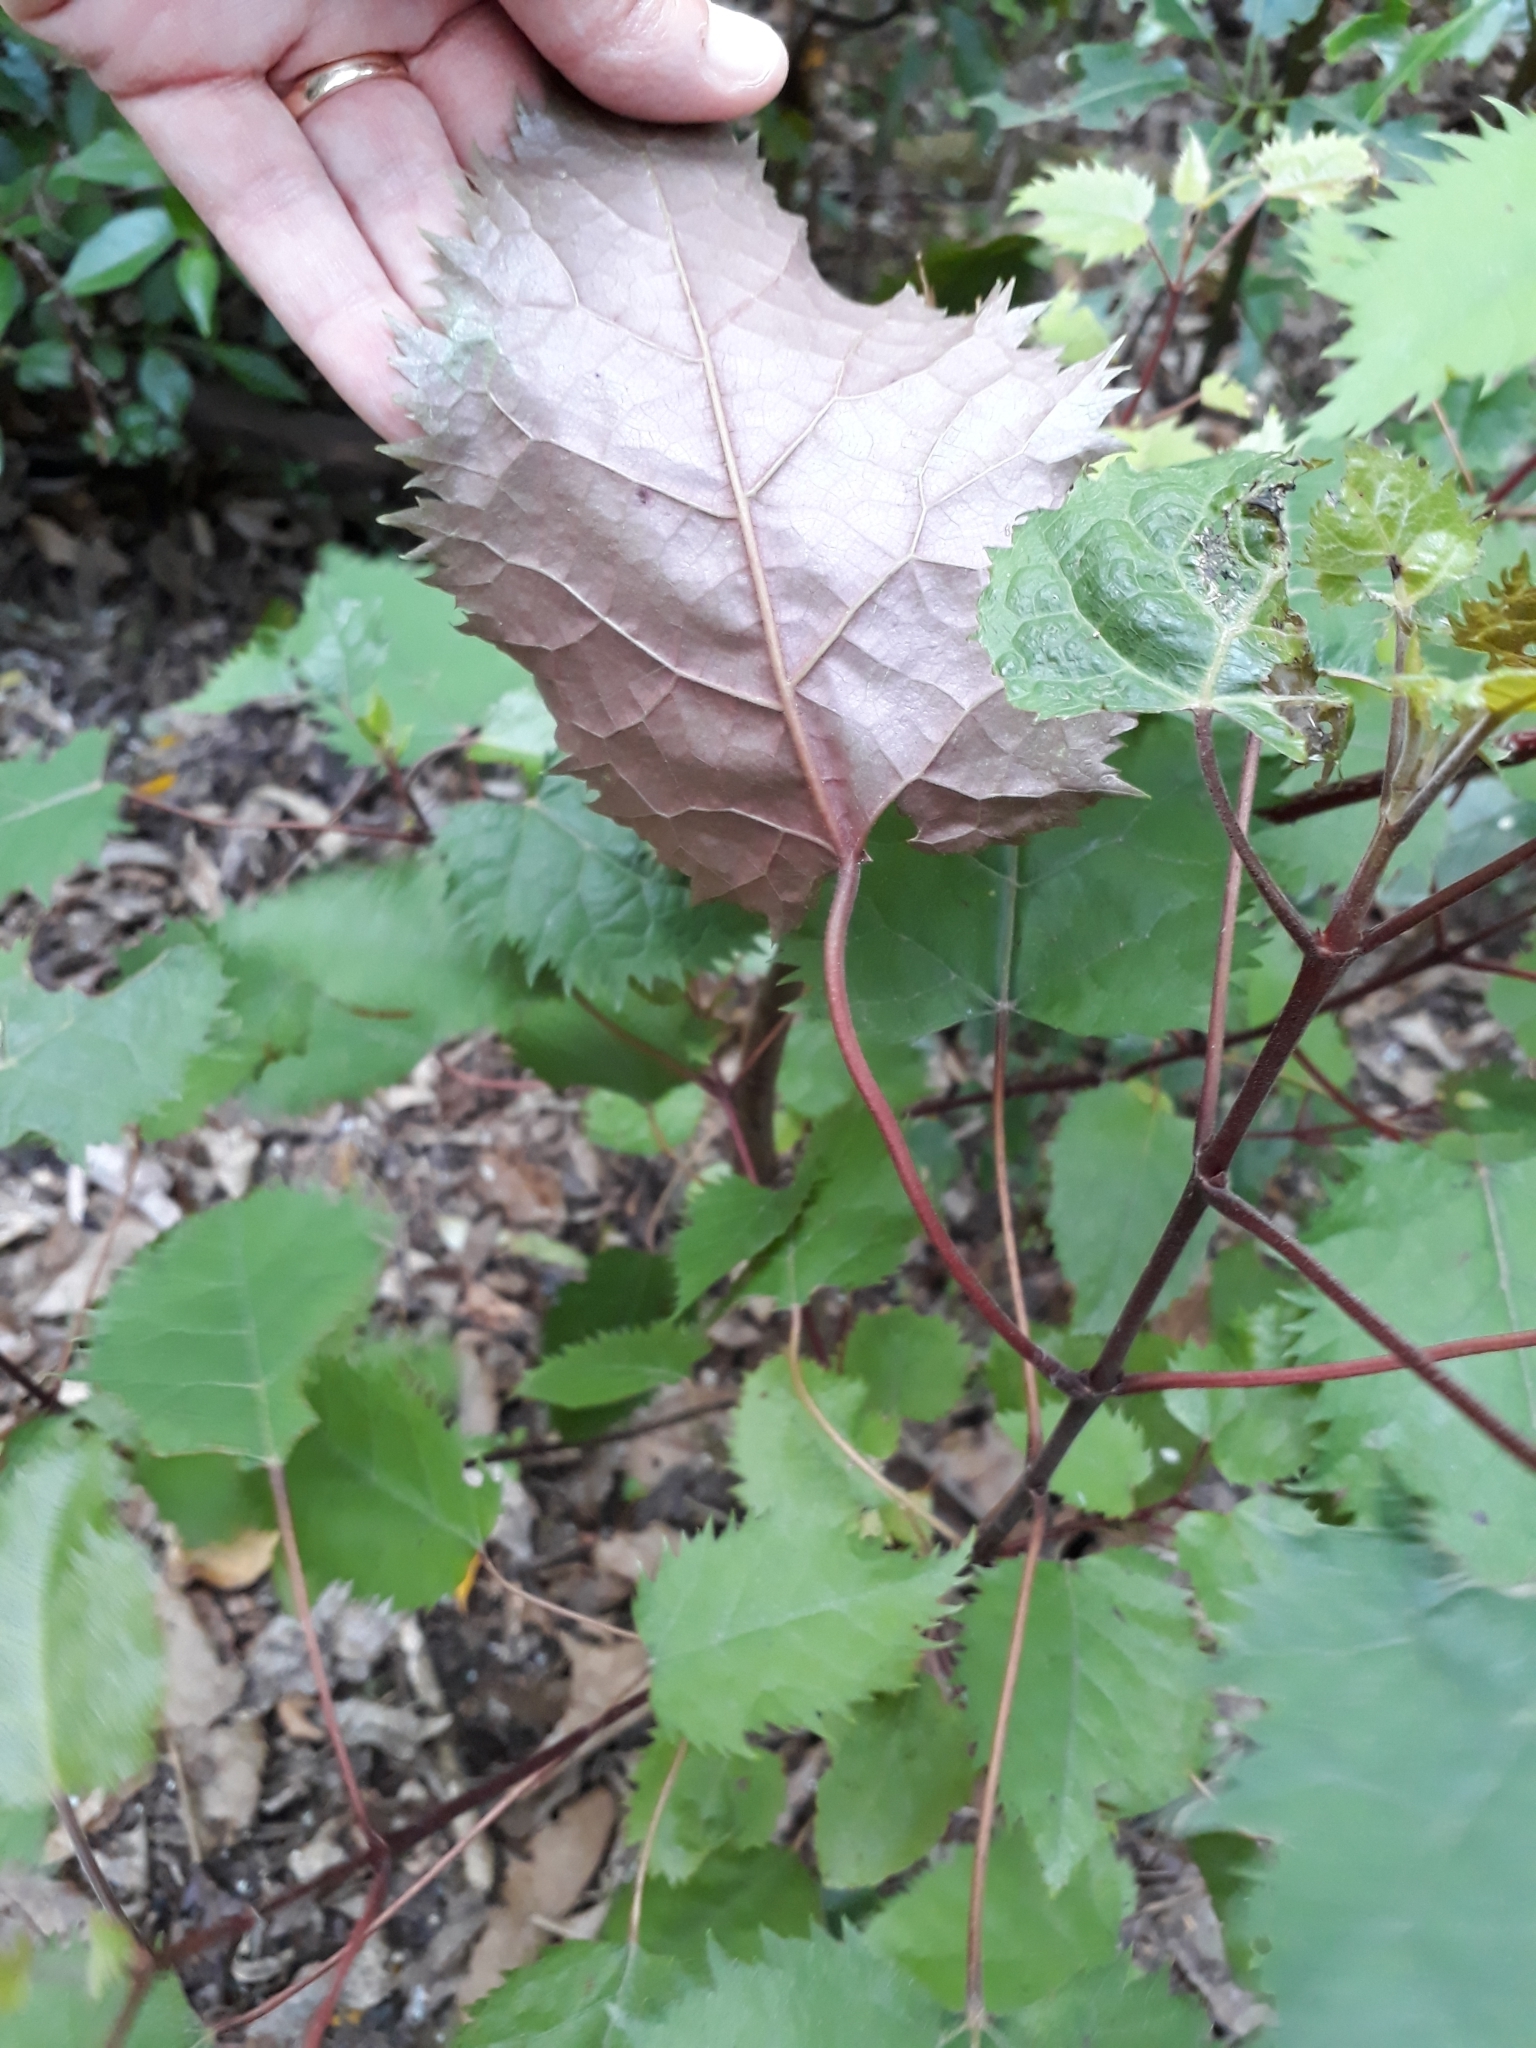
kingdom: Plantae
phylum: Tracheophyta
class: Magnoliopsida
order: Oxalidales
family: Elaeocarpaceae
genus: Aristotelia
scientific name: Aristotelia serrata
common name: New zealand wineberry
